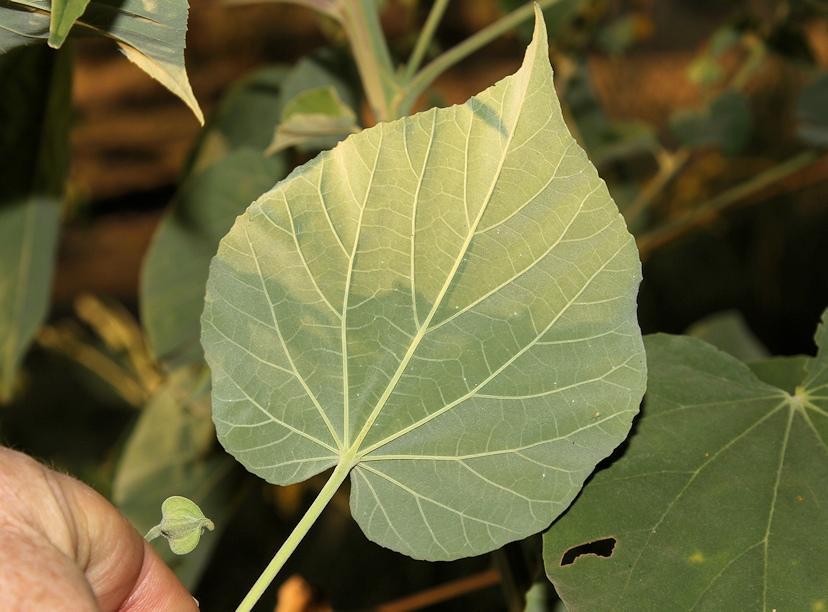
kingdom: Plantae
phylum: Tracheophyta
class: Magnoliopsida
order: Malvales
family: Malvaceae
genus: Abutilon
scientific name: Abutilon angulatum
